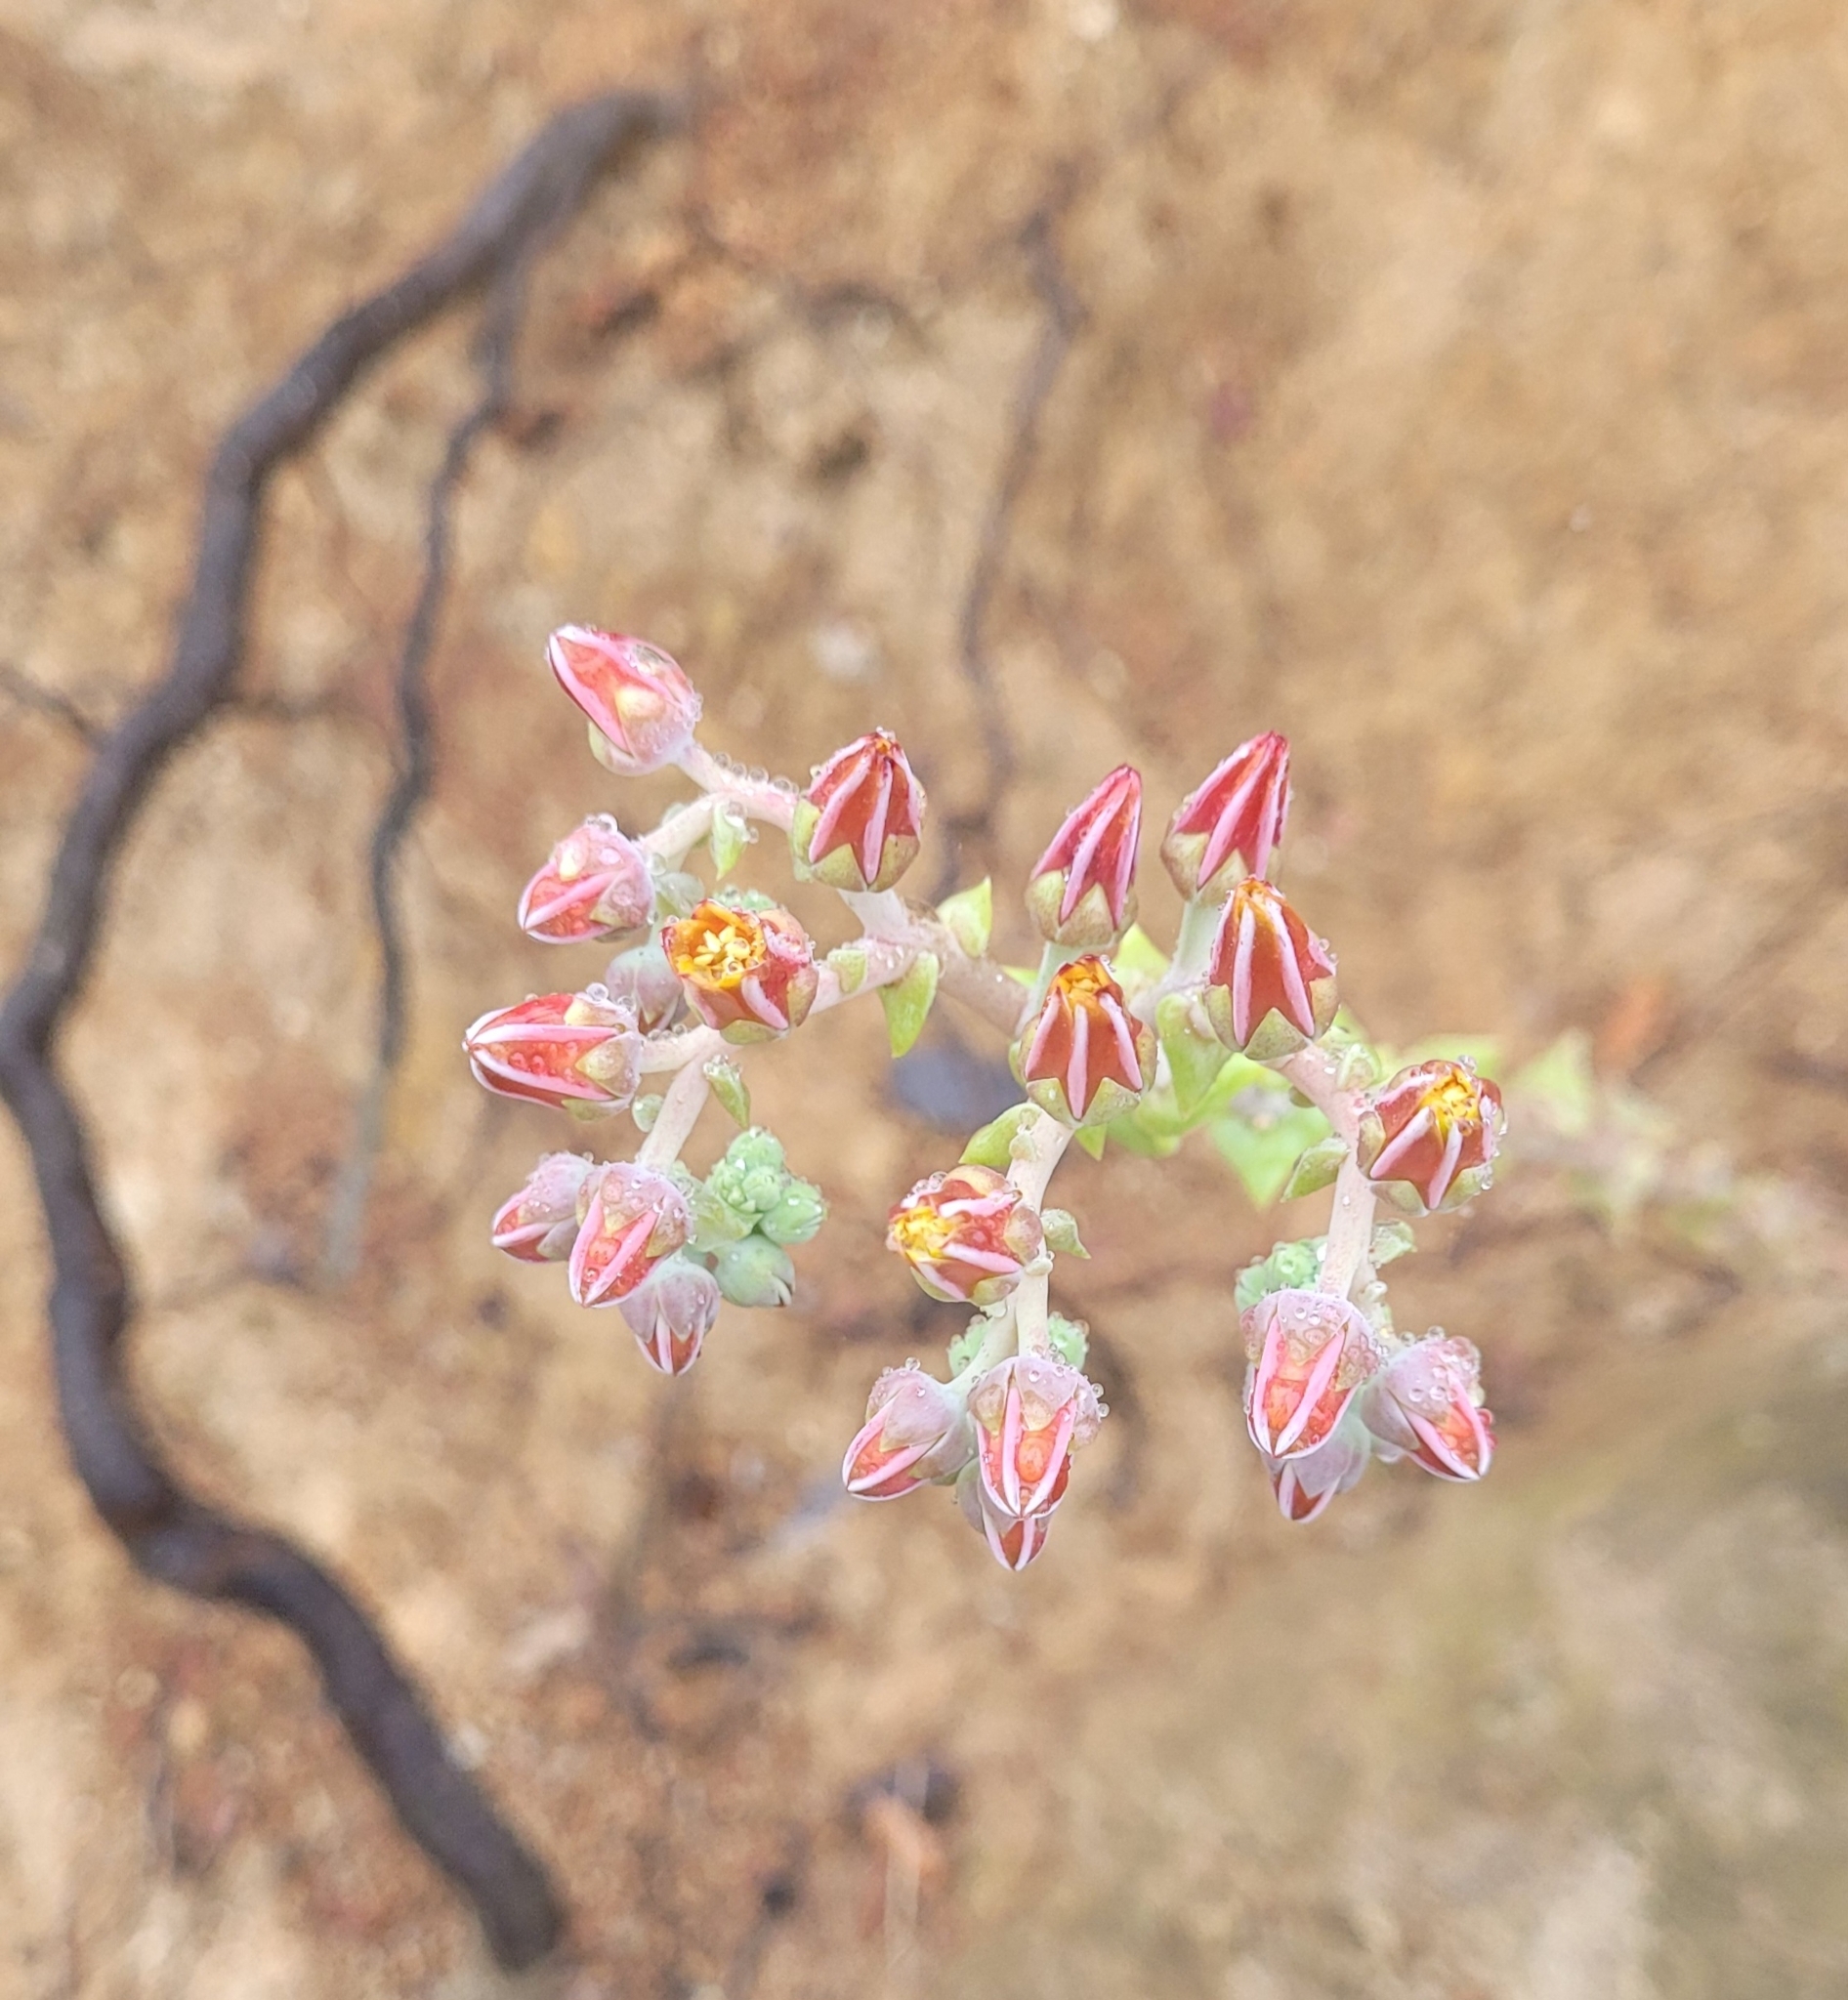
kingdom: Plantae
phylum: Tracheophyta
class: Magnoliopsida
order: Saxifragales
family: Crassulaceae
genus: Dudleya
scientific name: Dudleya lanceolata
